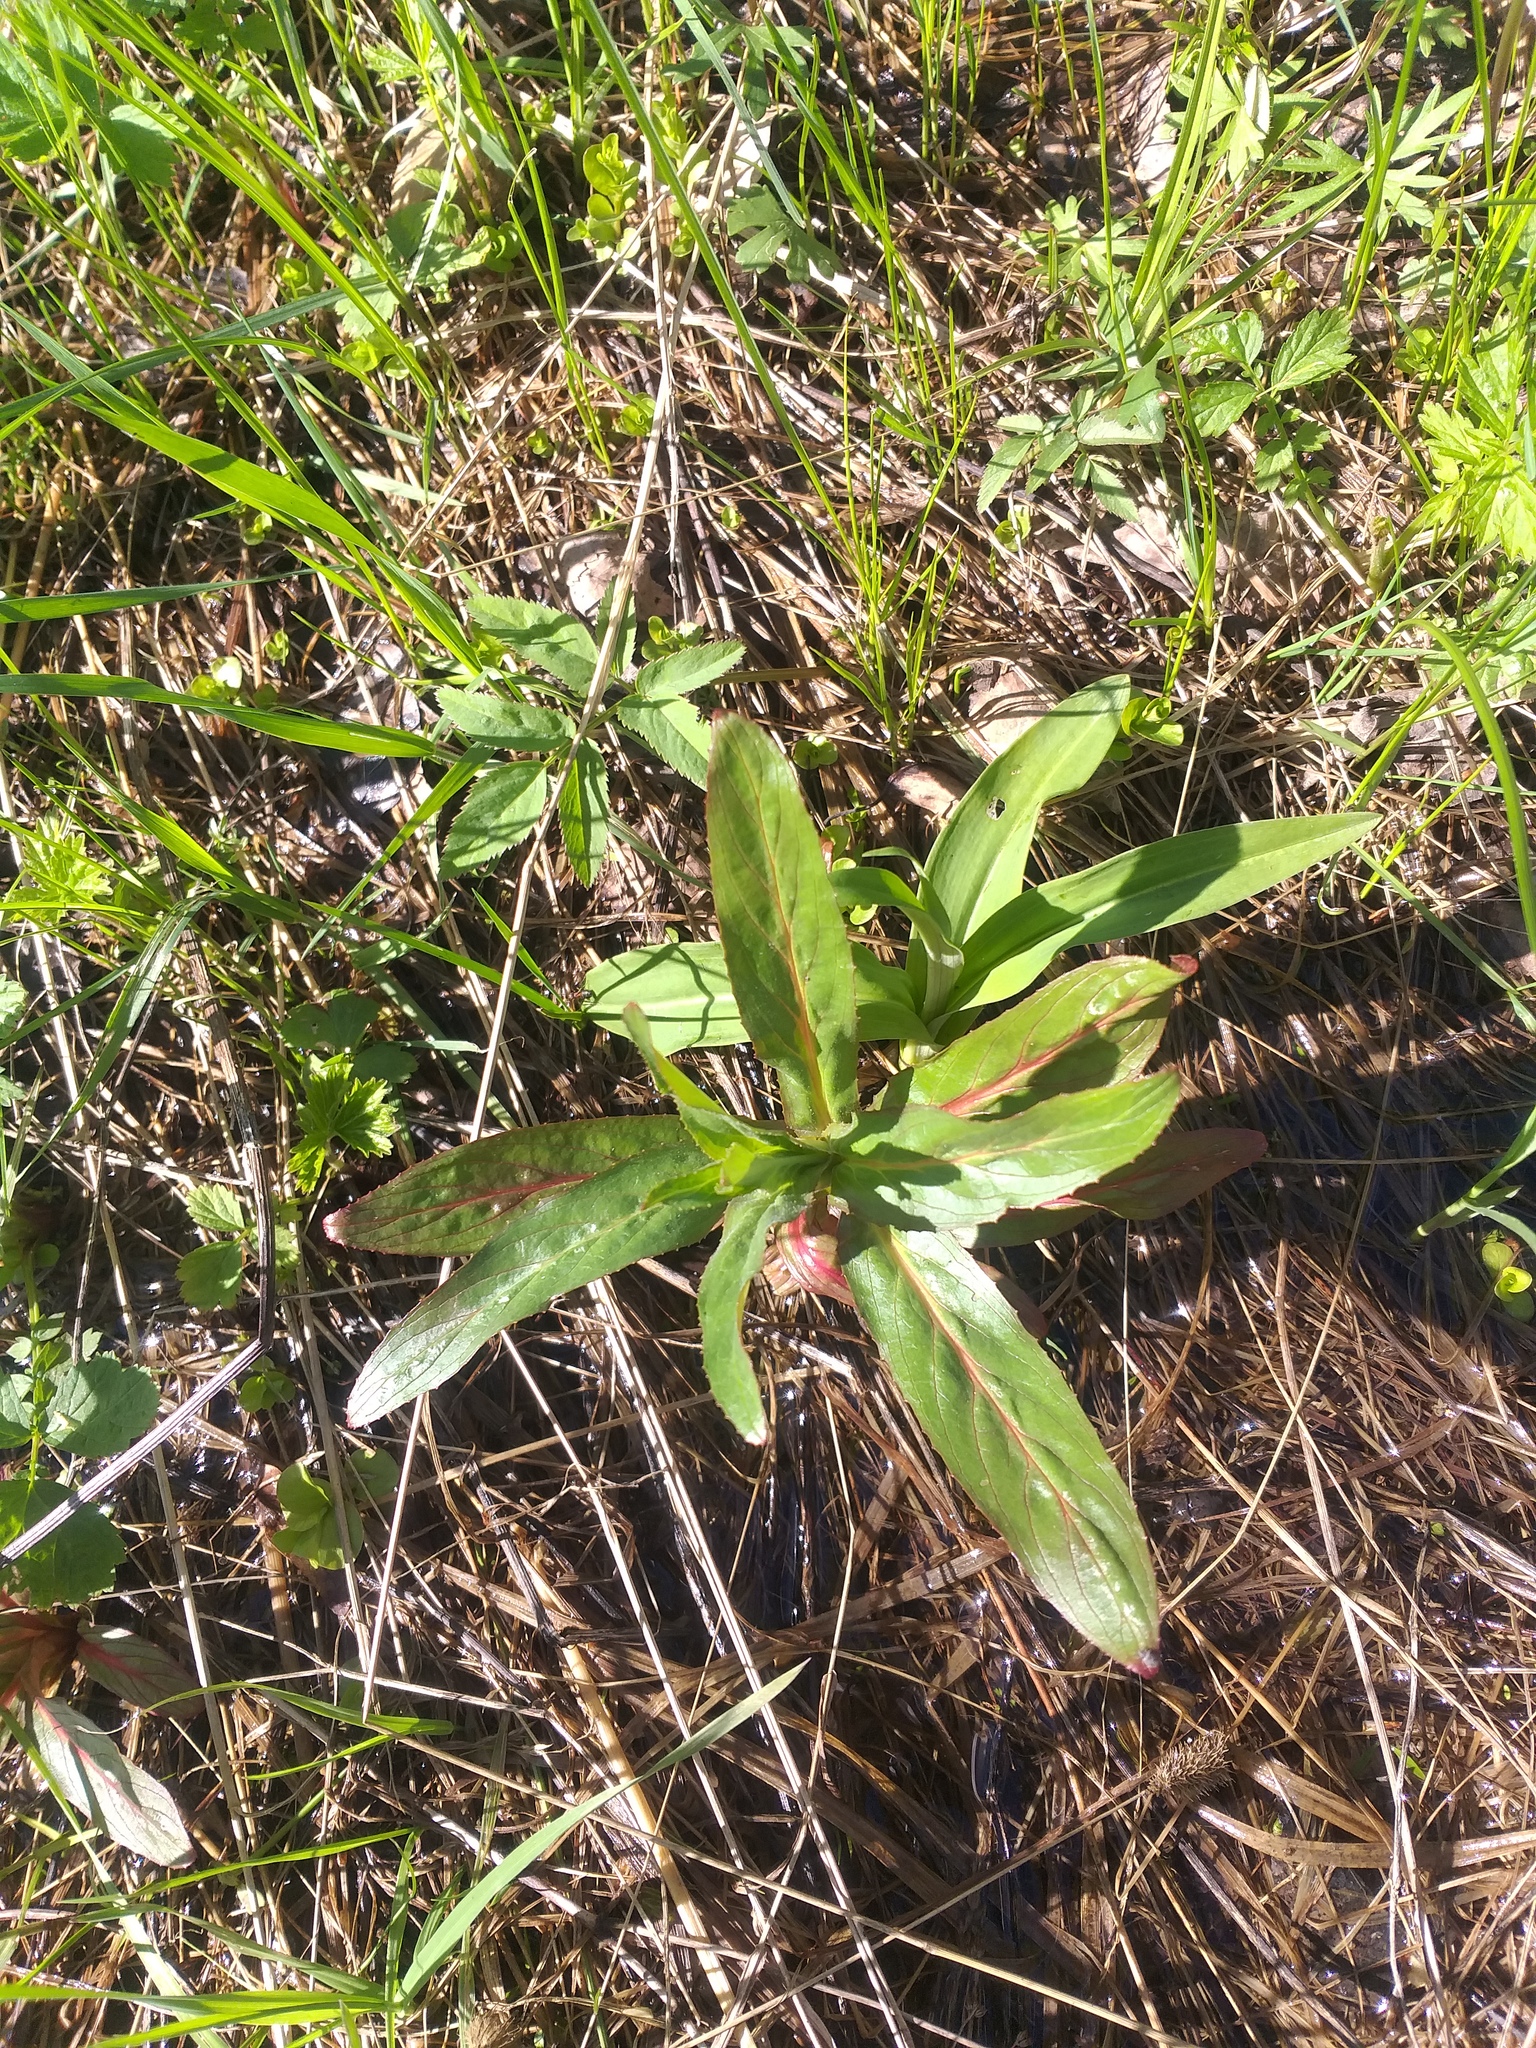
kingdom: Plantae
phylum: Tracheophyta
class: Magnoliopsida
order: Myrtales
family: Onagraceae
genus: Epilobium
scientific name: Epilobium hirsutum
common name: Great willowherb
